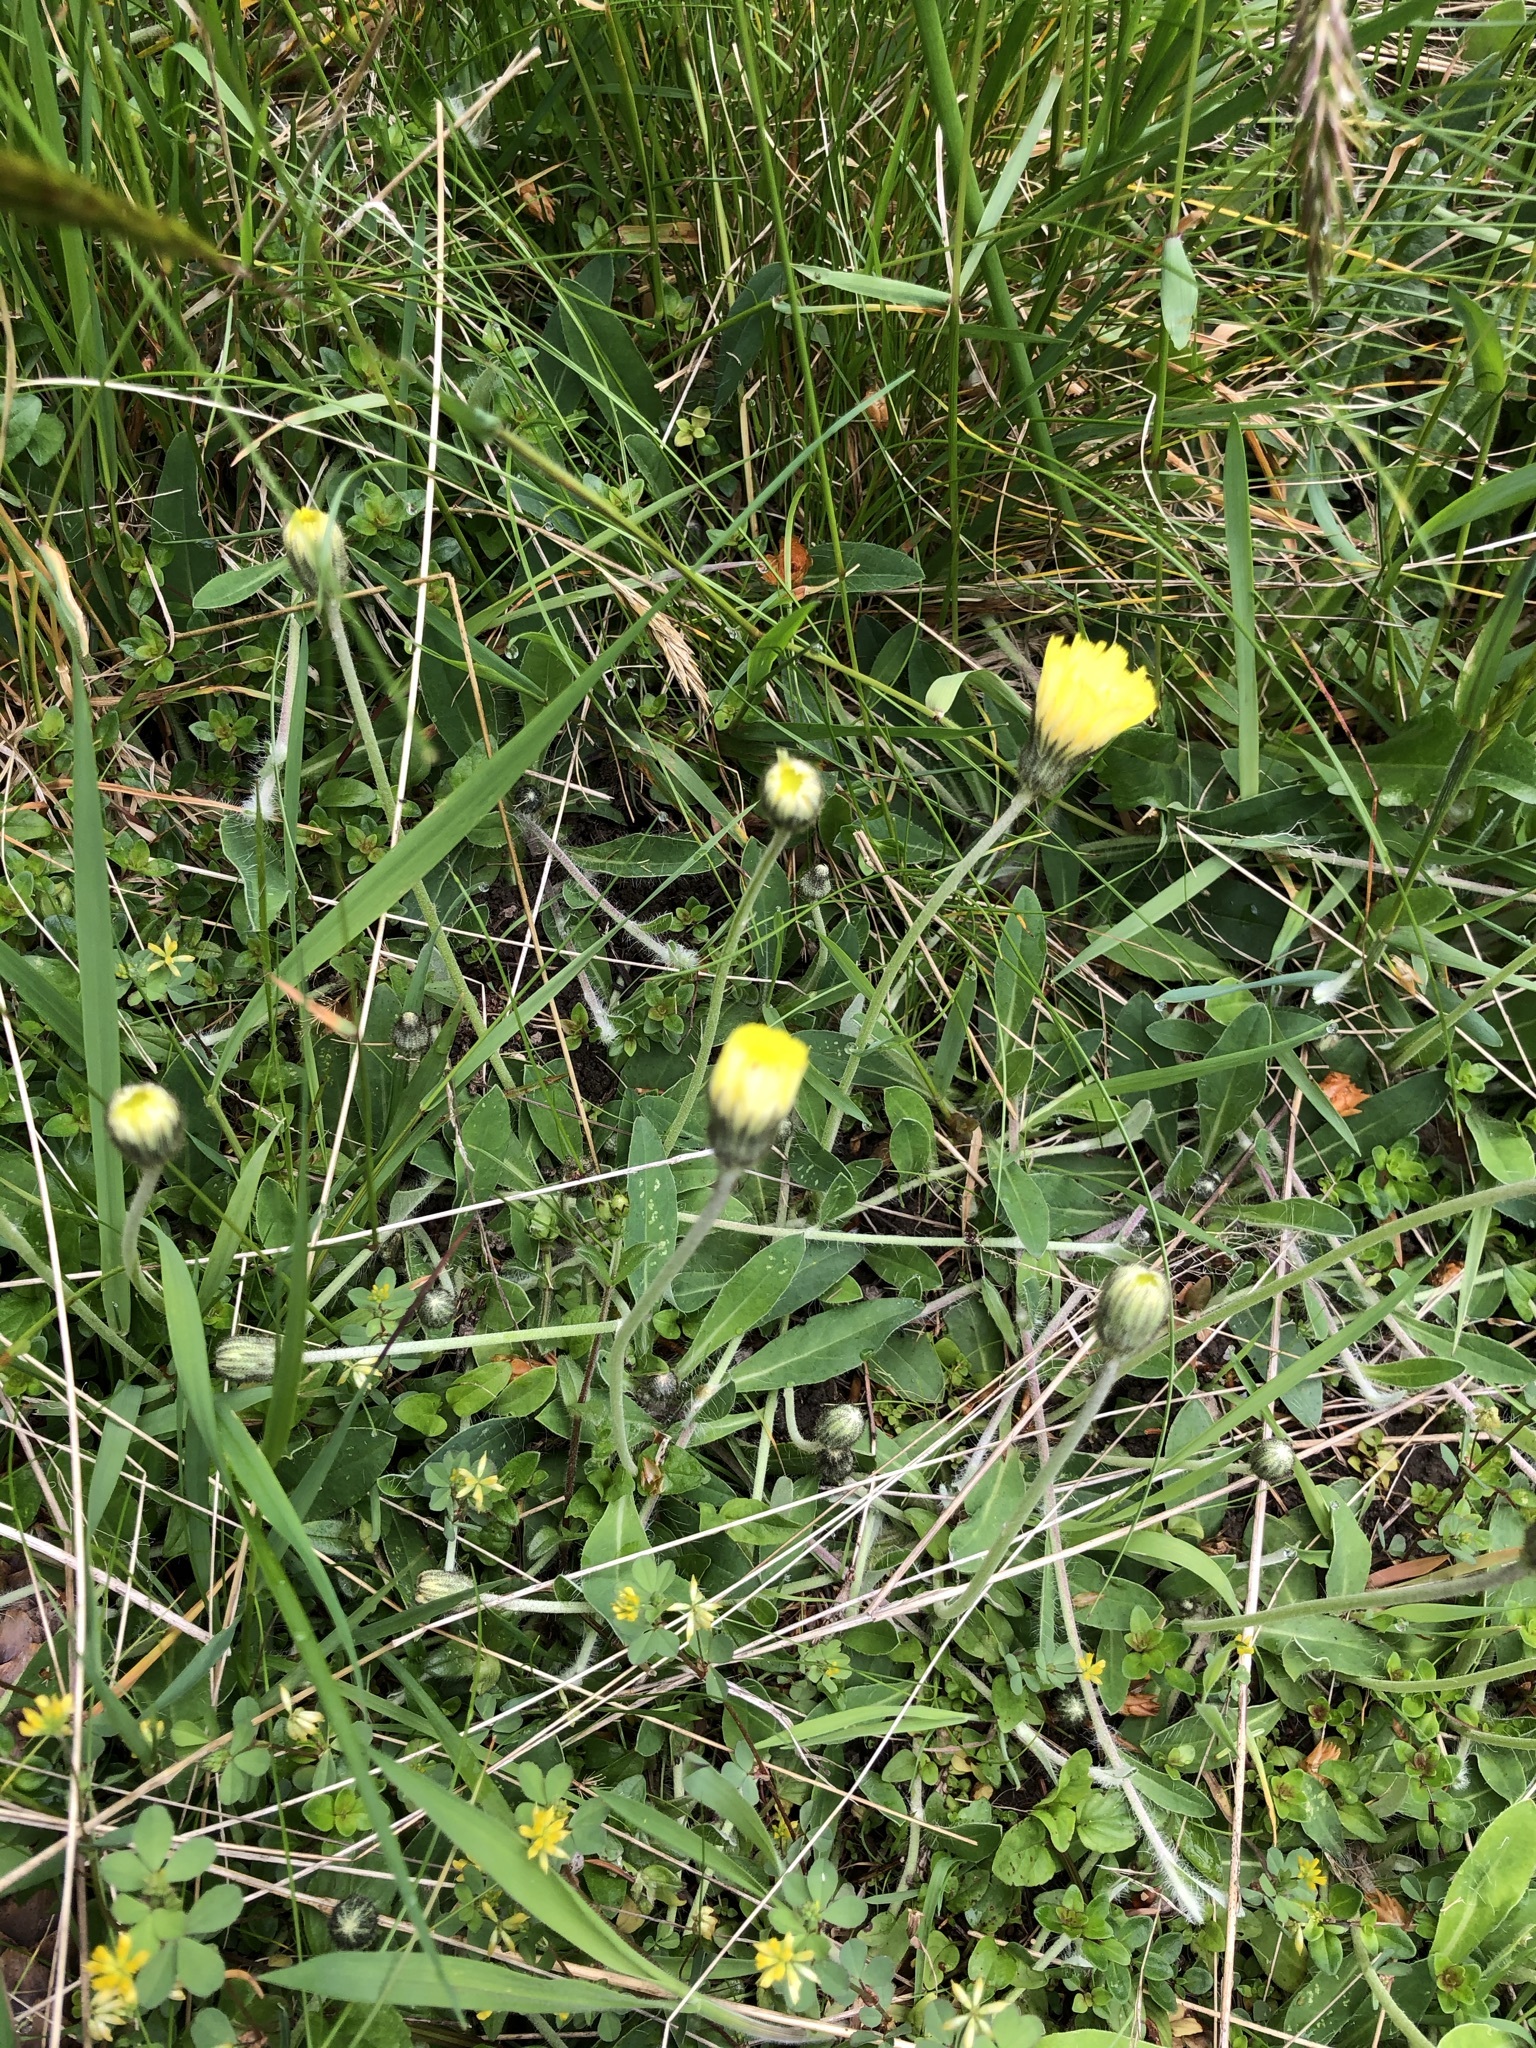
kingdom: Plantae
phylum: Tracheophyta
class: Magnoliopsida
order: Asterales
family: Asteraceae
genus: Pilosella
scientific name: Pilosella officinarum
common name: Mouse-ear hawkweed
